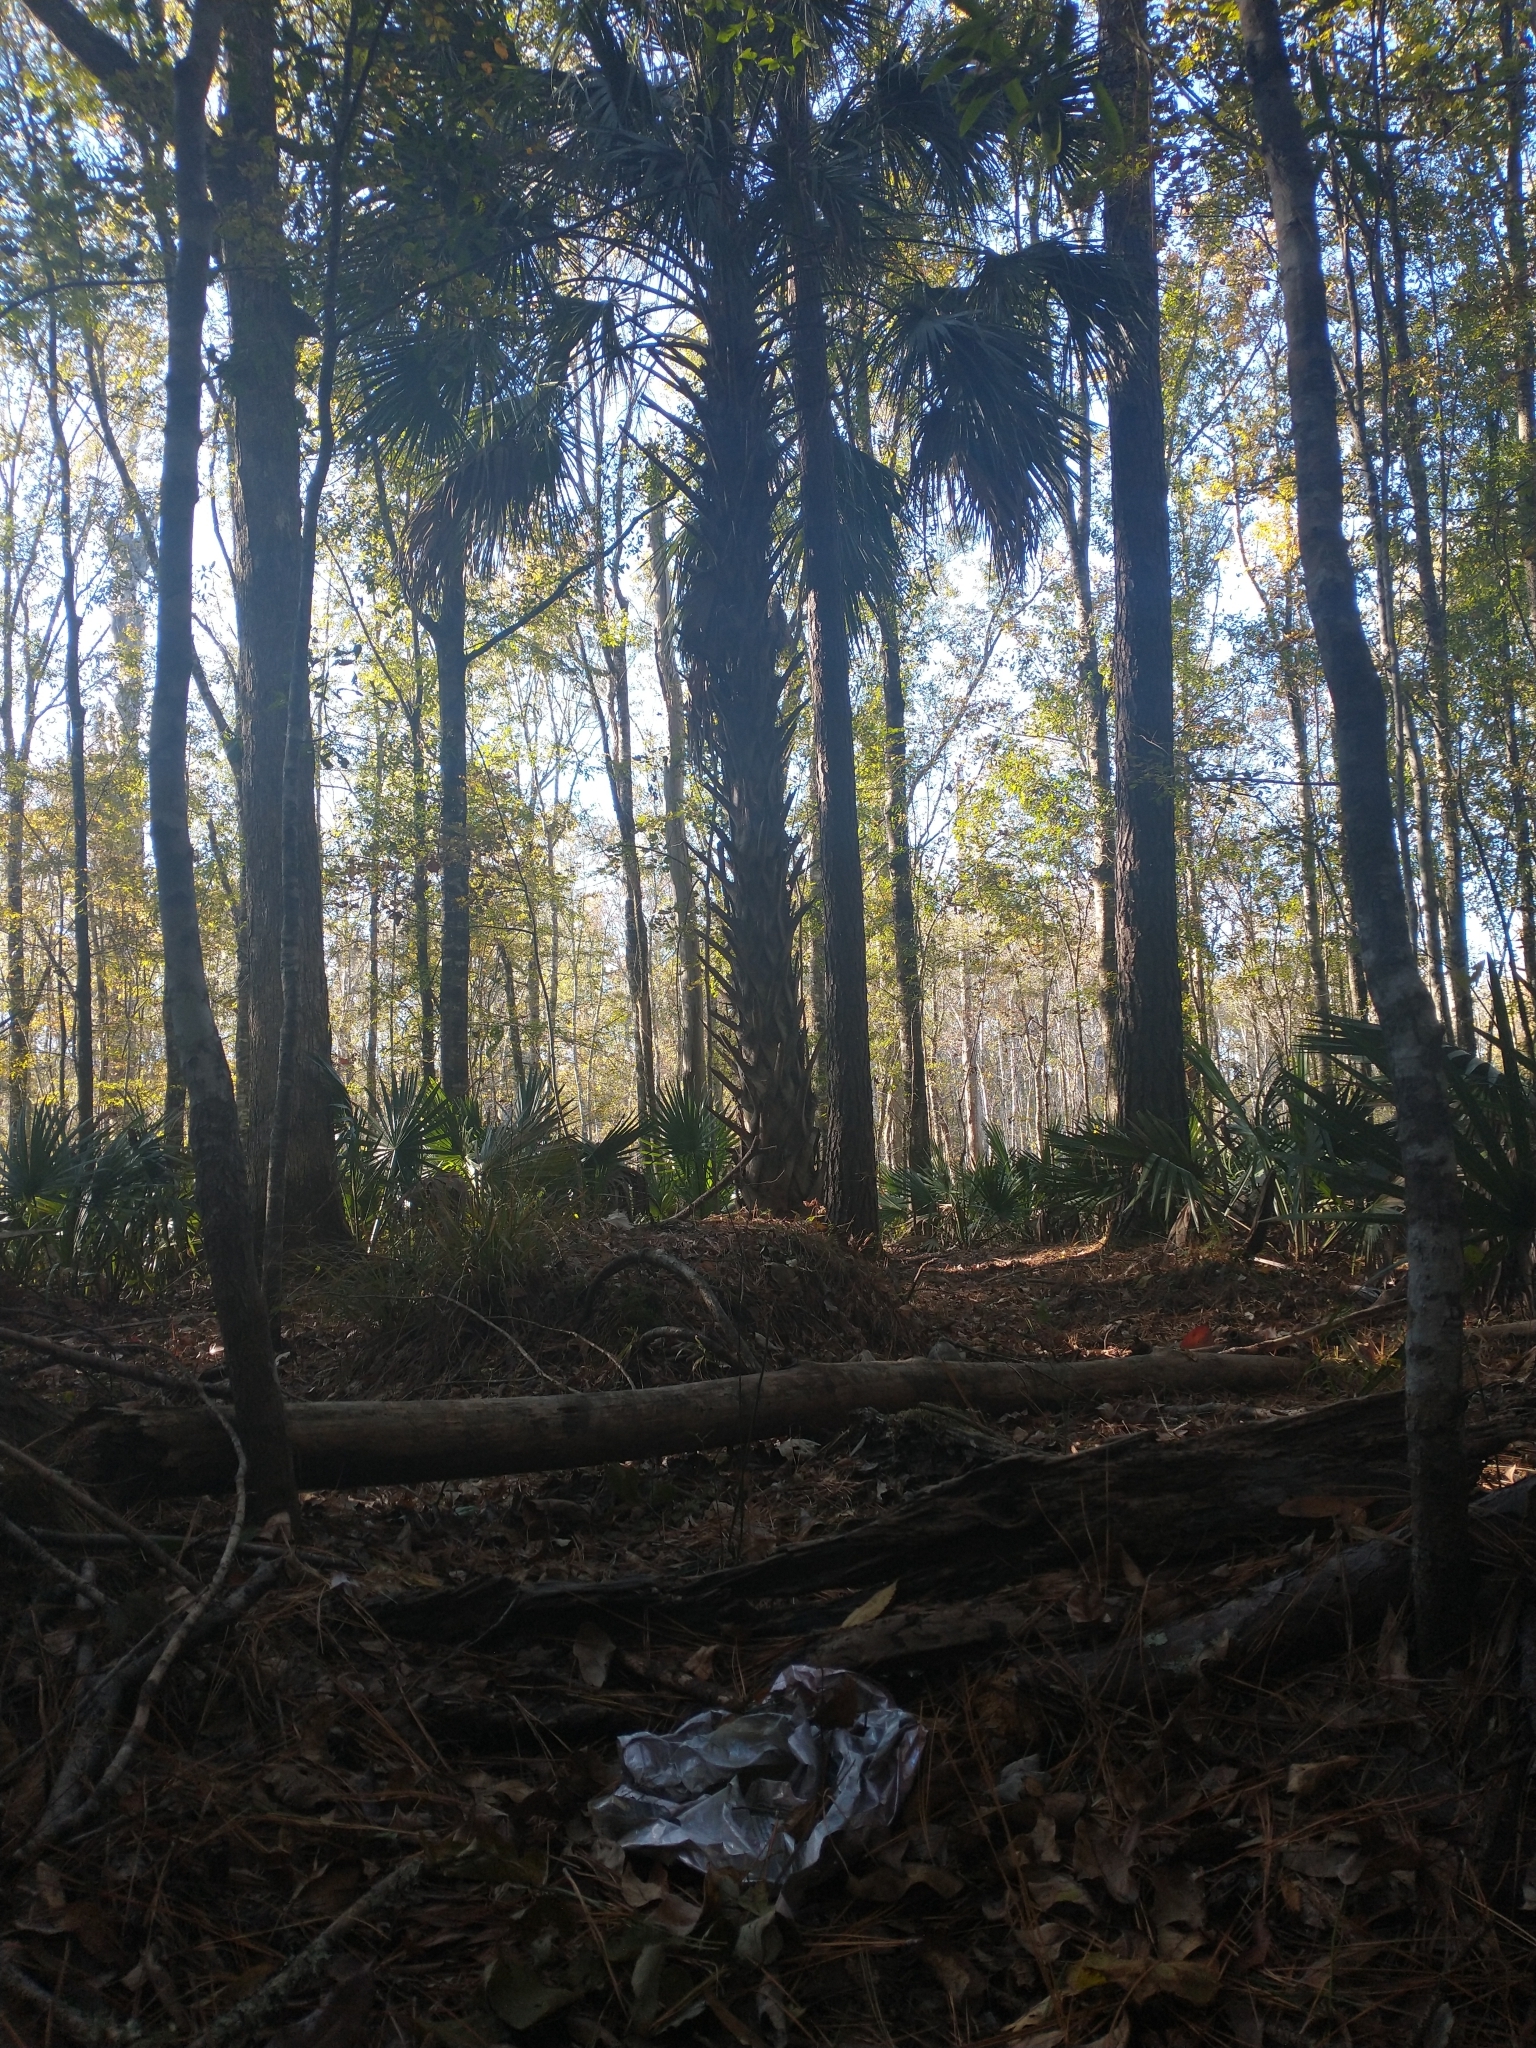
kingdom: Plantae
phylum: Tracheophyta
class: Liliopsida
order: Arecales
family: Arecaceae
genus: Sabal
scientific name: Sabal palmetto
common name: Blue palmetto
